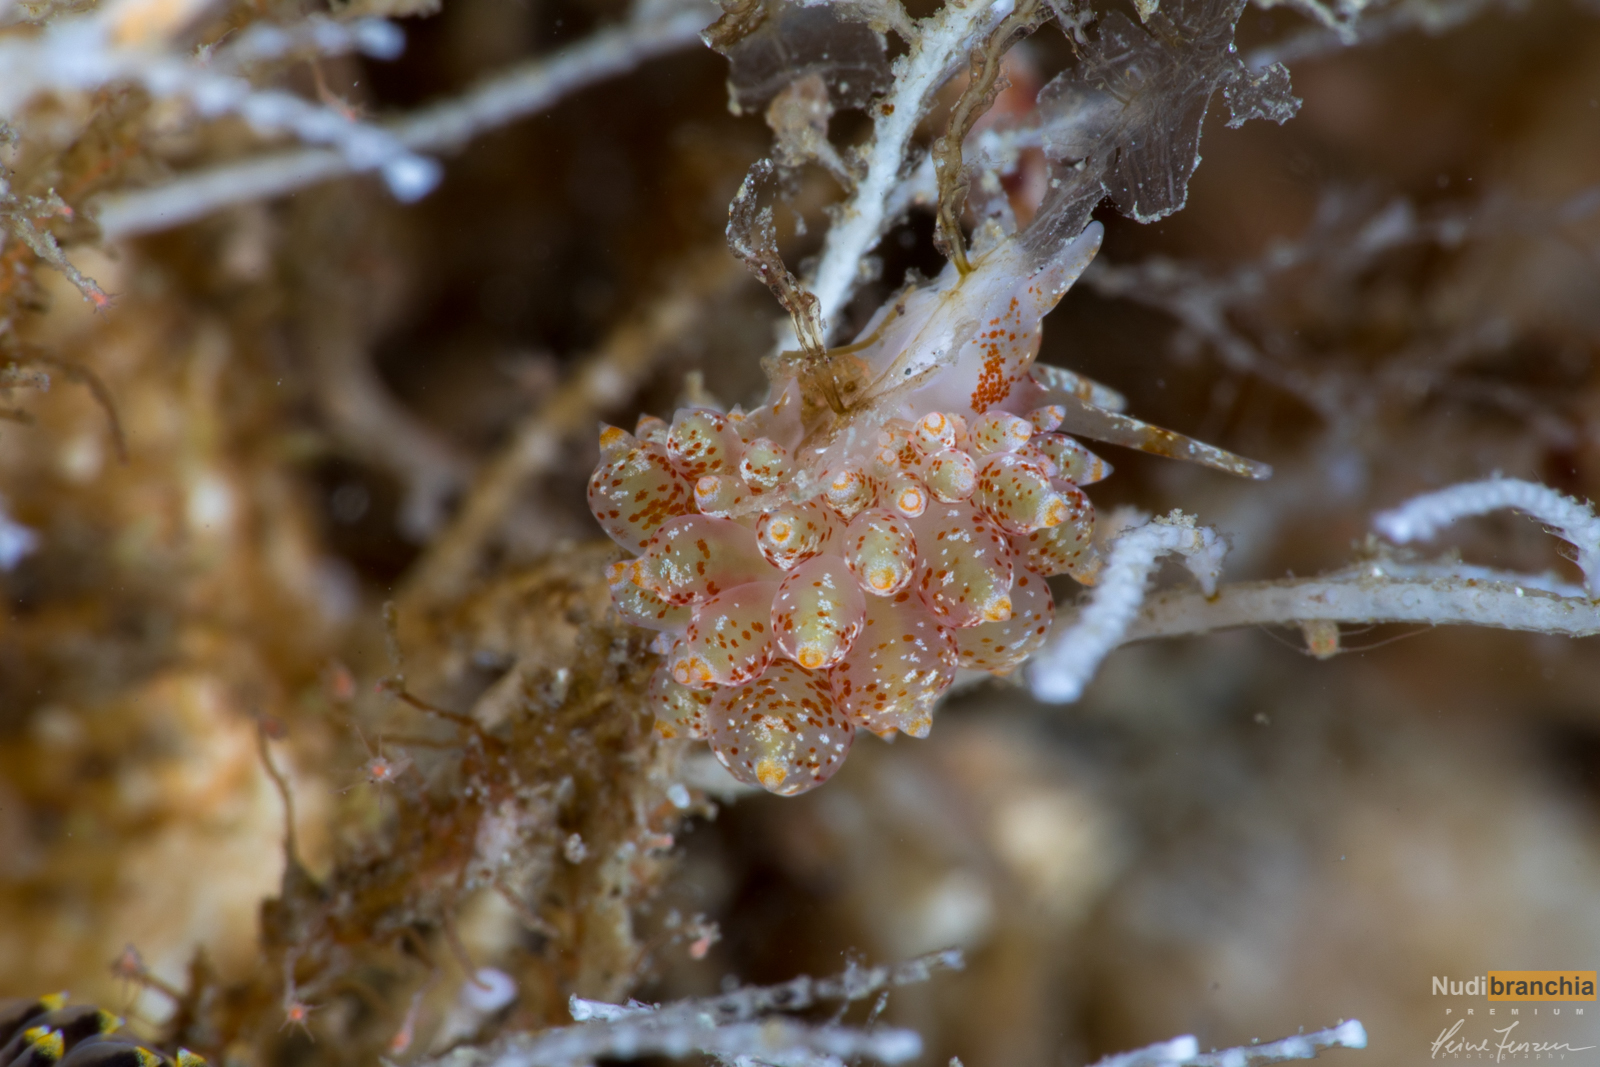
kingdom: Animalia
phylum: Mollusca
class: Gastropoda
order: Nudibranchia
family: Eubranchidae
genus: Amphorina
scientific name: Amphorina pallida
